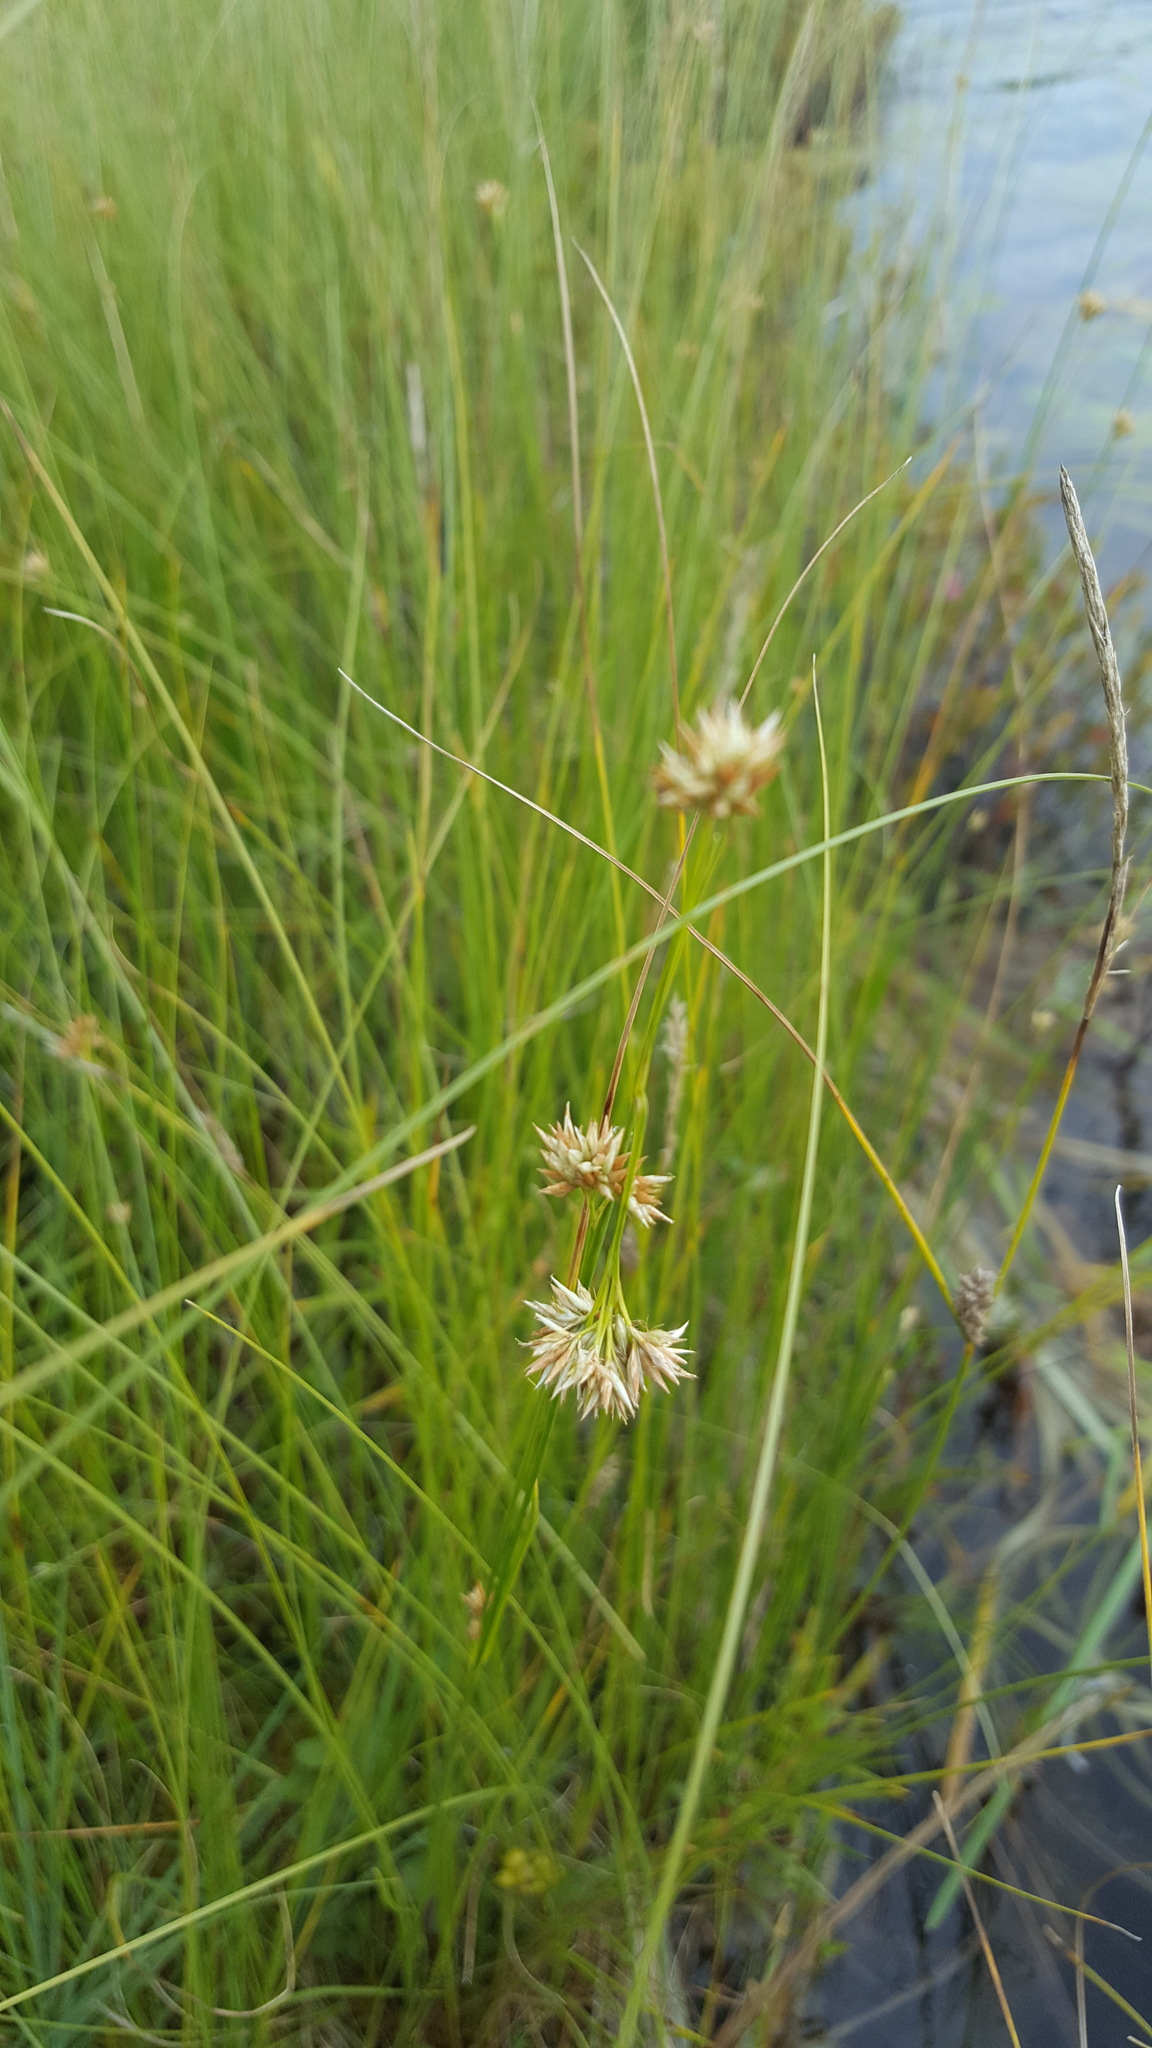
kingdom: Plantae
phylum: Tracheophyta
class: Liliopsida
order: Poales
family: Cyperaceae
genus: Rhynchospora
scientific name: Rhynchospora alba
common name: White beak-sedge
